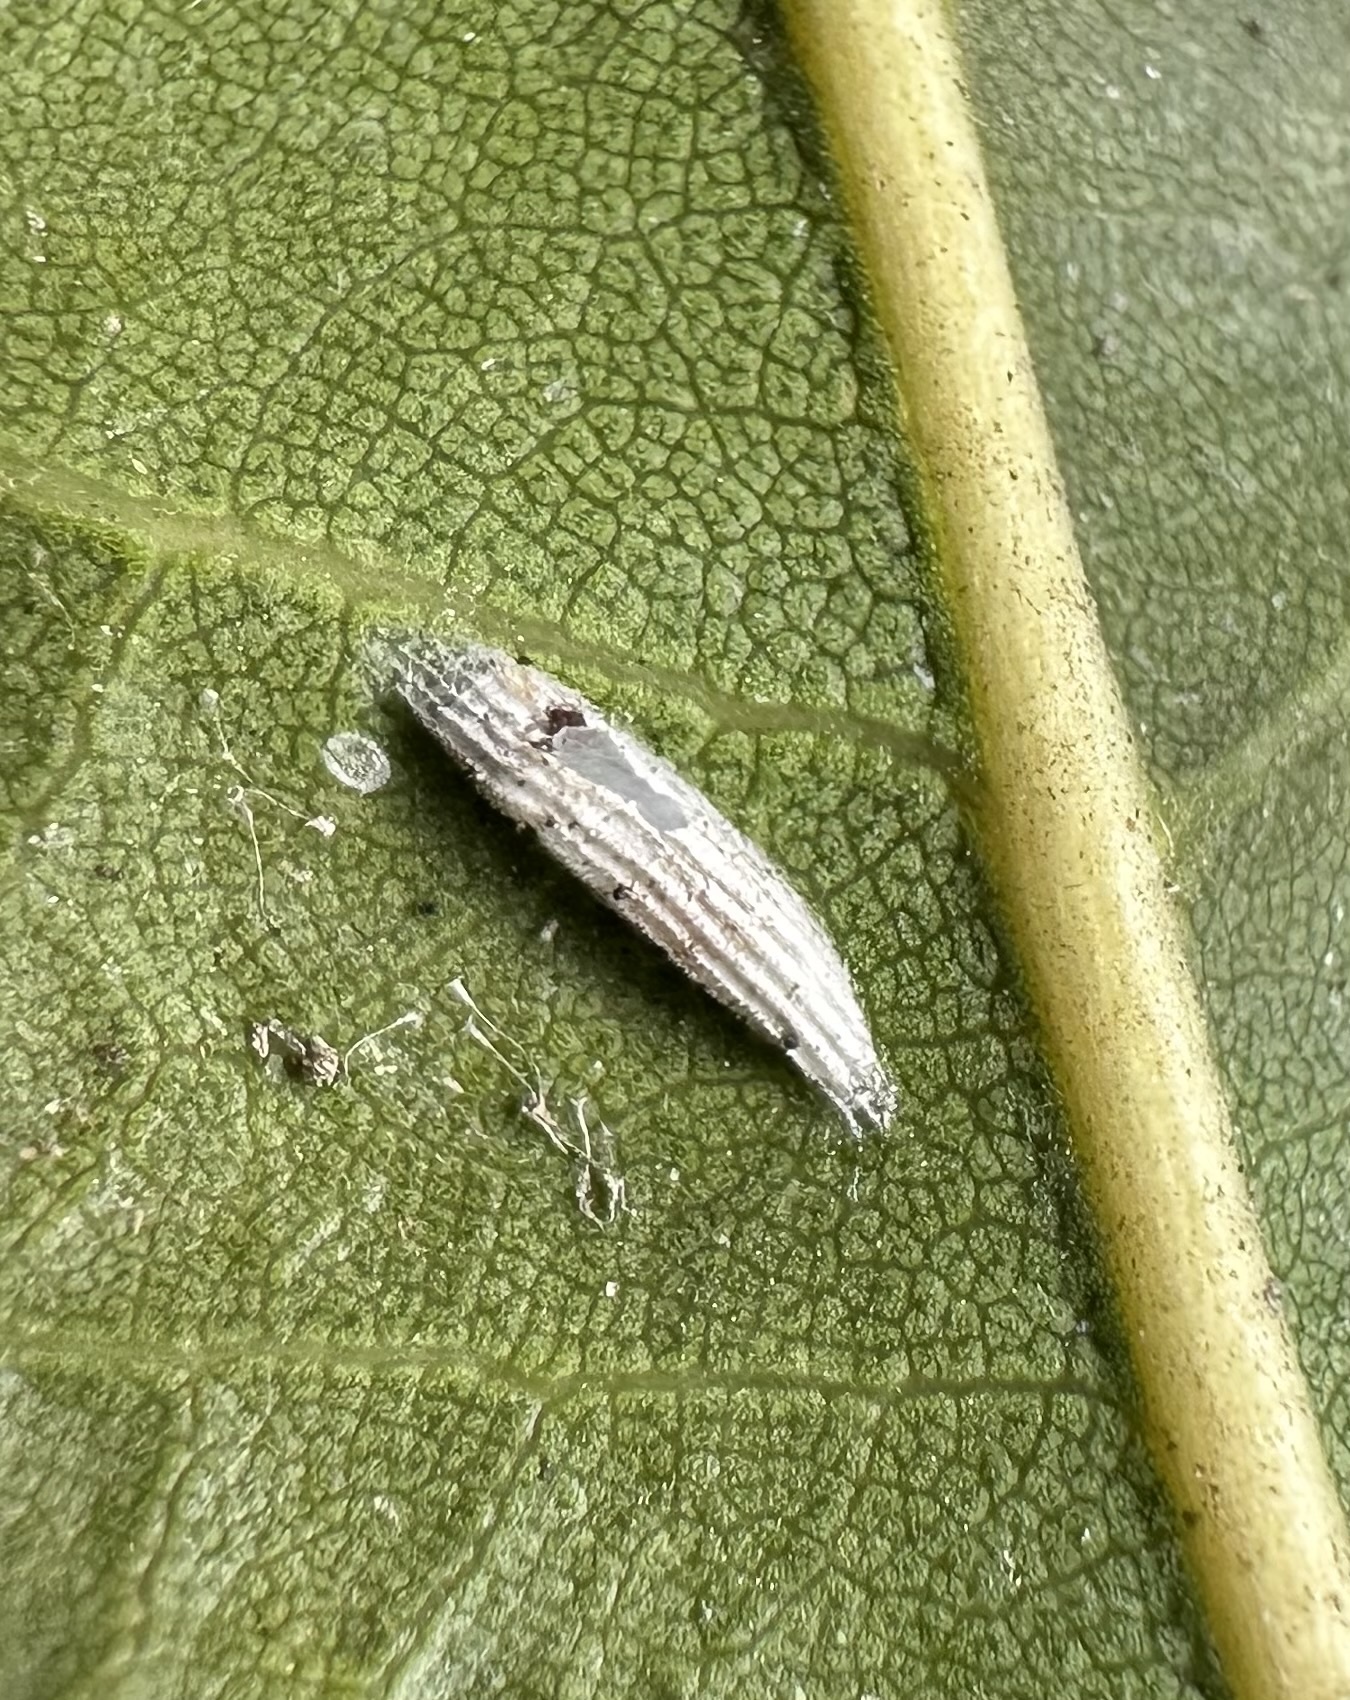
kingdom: Animalia
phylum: Arthropoda
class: Insecta
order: Lepidoptera
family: Bucculatricidae
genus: Bucculatrix
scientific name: Bucculatrix albertiella
